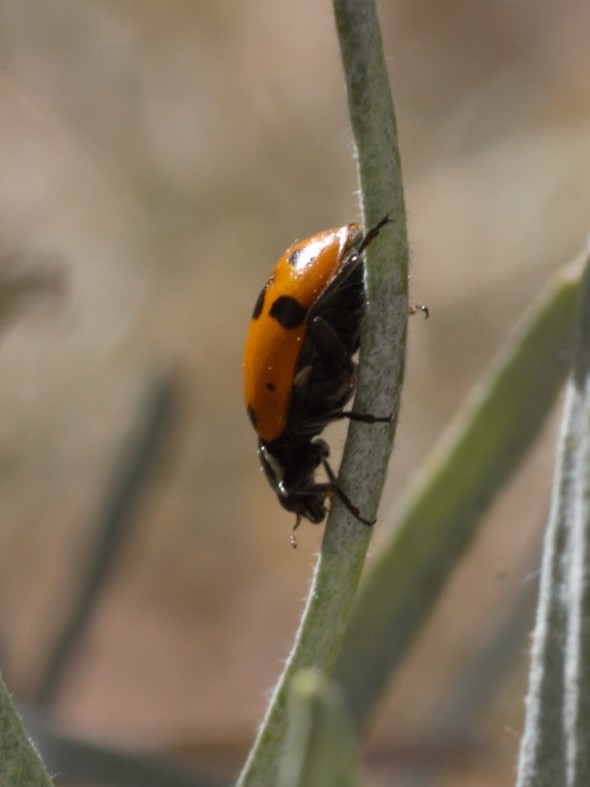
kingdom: Animalia
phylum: Arthropoda
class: Insecta
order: Coleoptera
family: Coccinellidae
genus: Hippodamia
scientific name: Hippodamia convergens
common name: Convergent lady beetle
